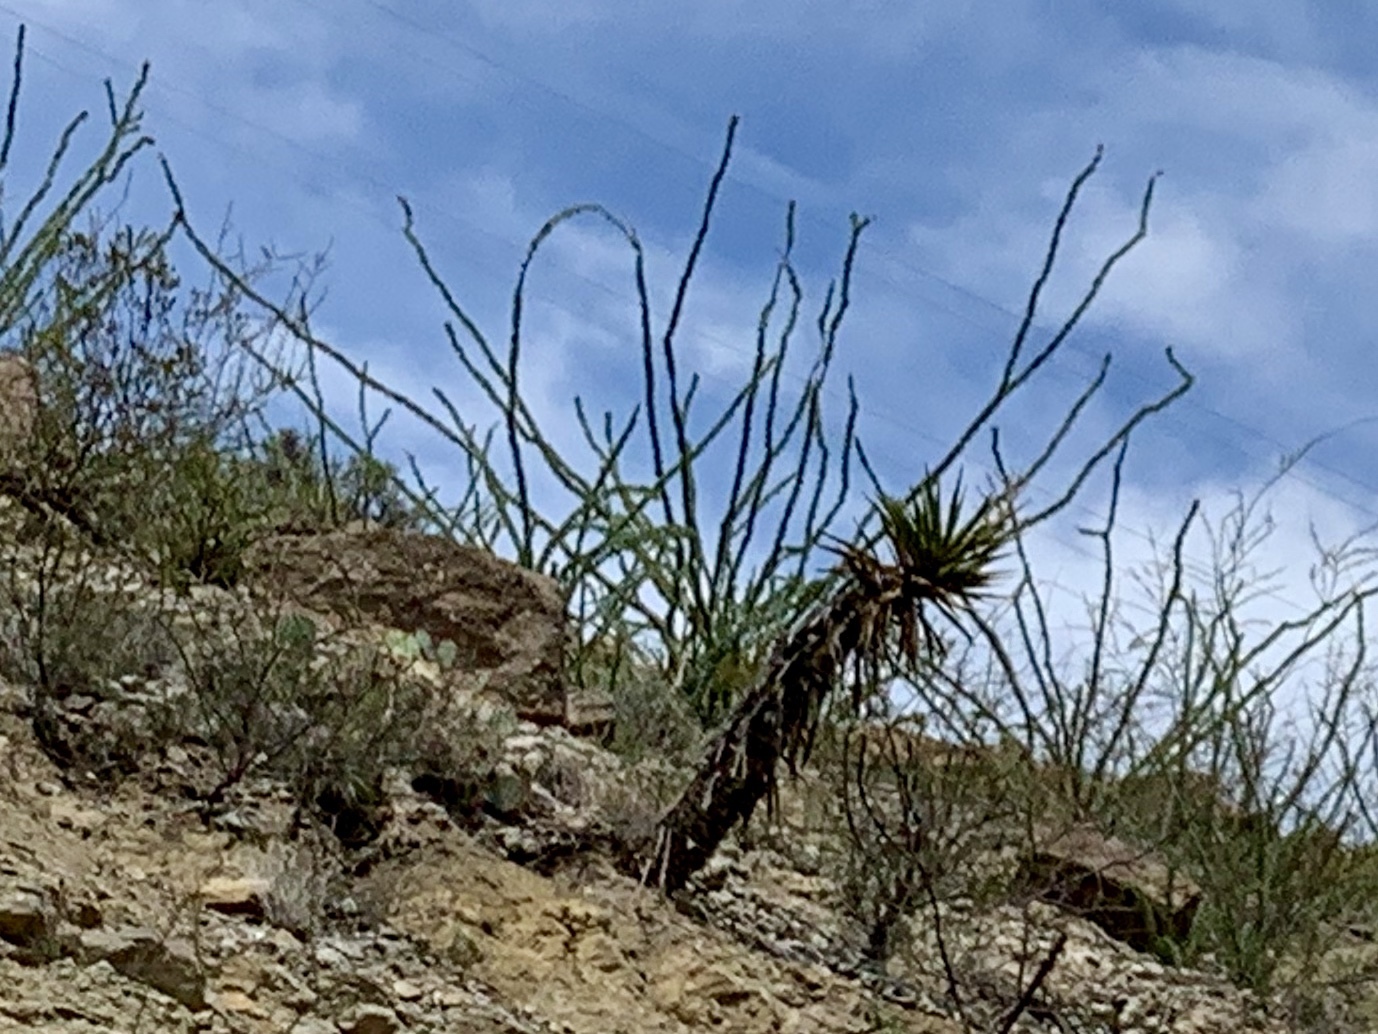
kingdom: Plantae
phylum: Tracheophyta
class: Magnoliopsida
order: Ericales
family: Fouquieriaceae
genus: Fouquieria
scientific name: Fouquieria splendens
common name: Vine-cactus
